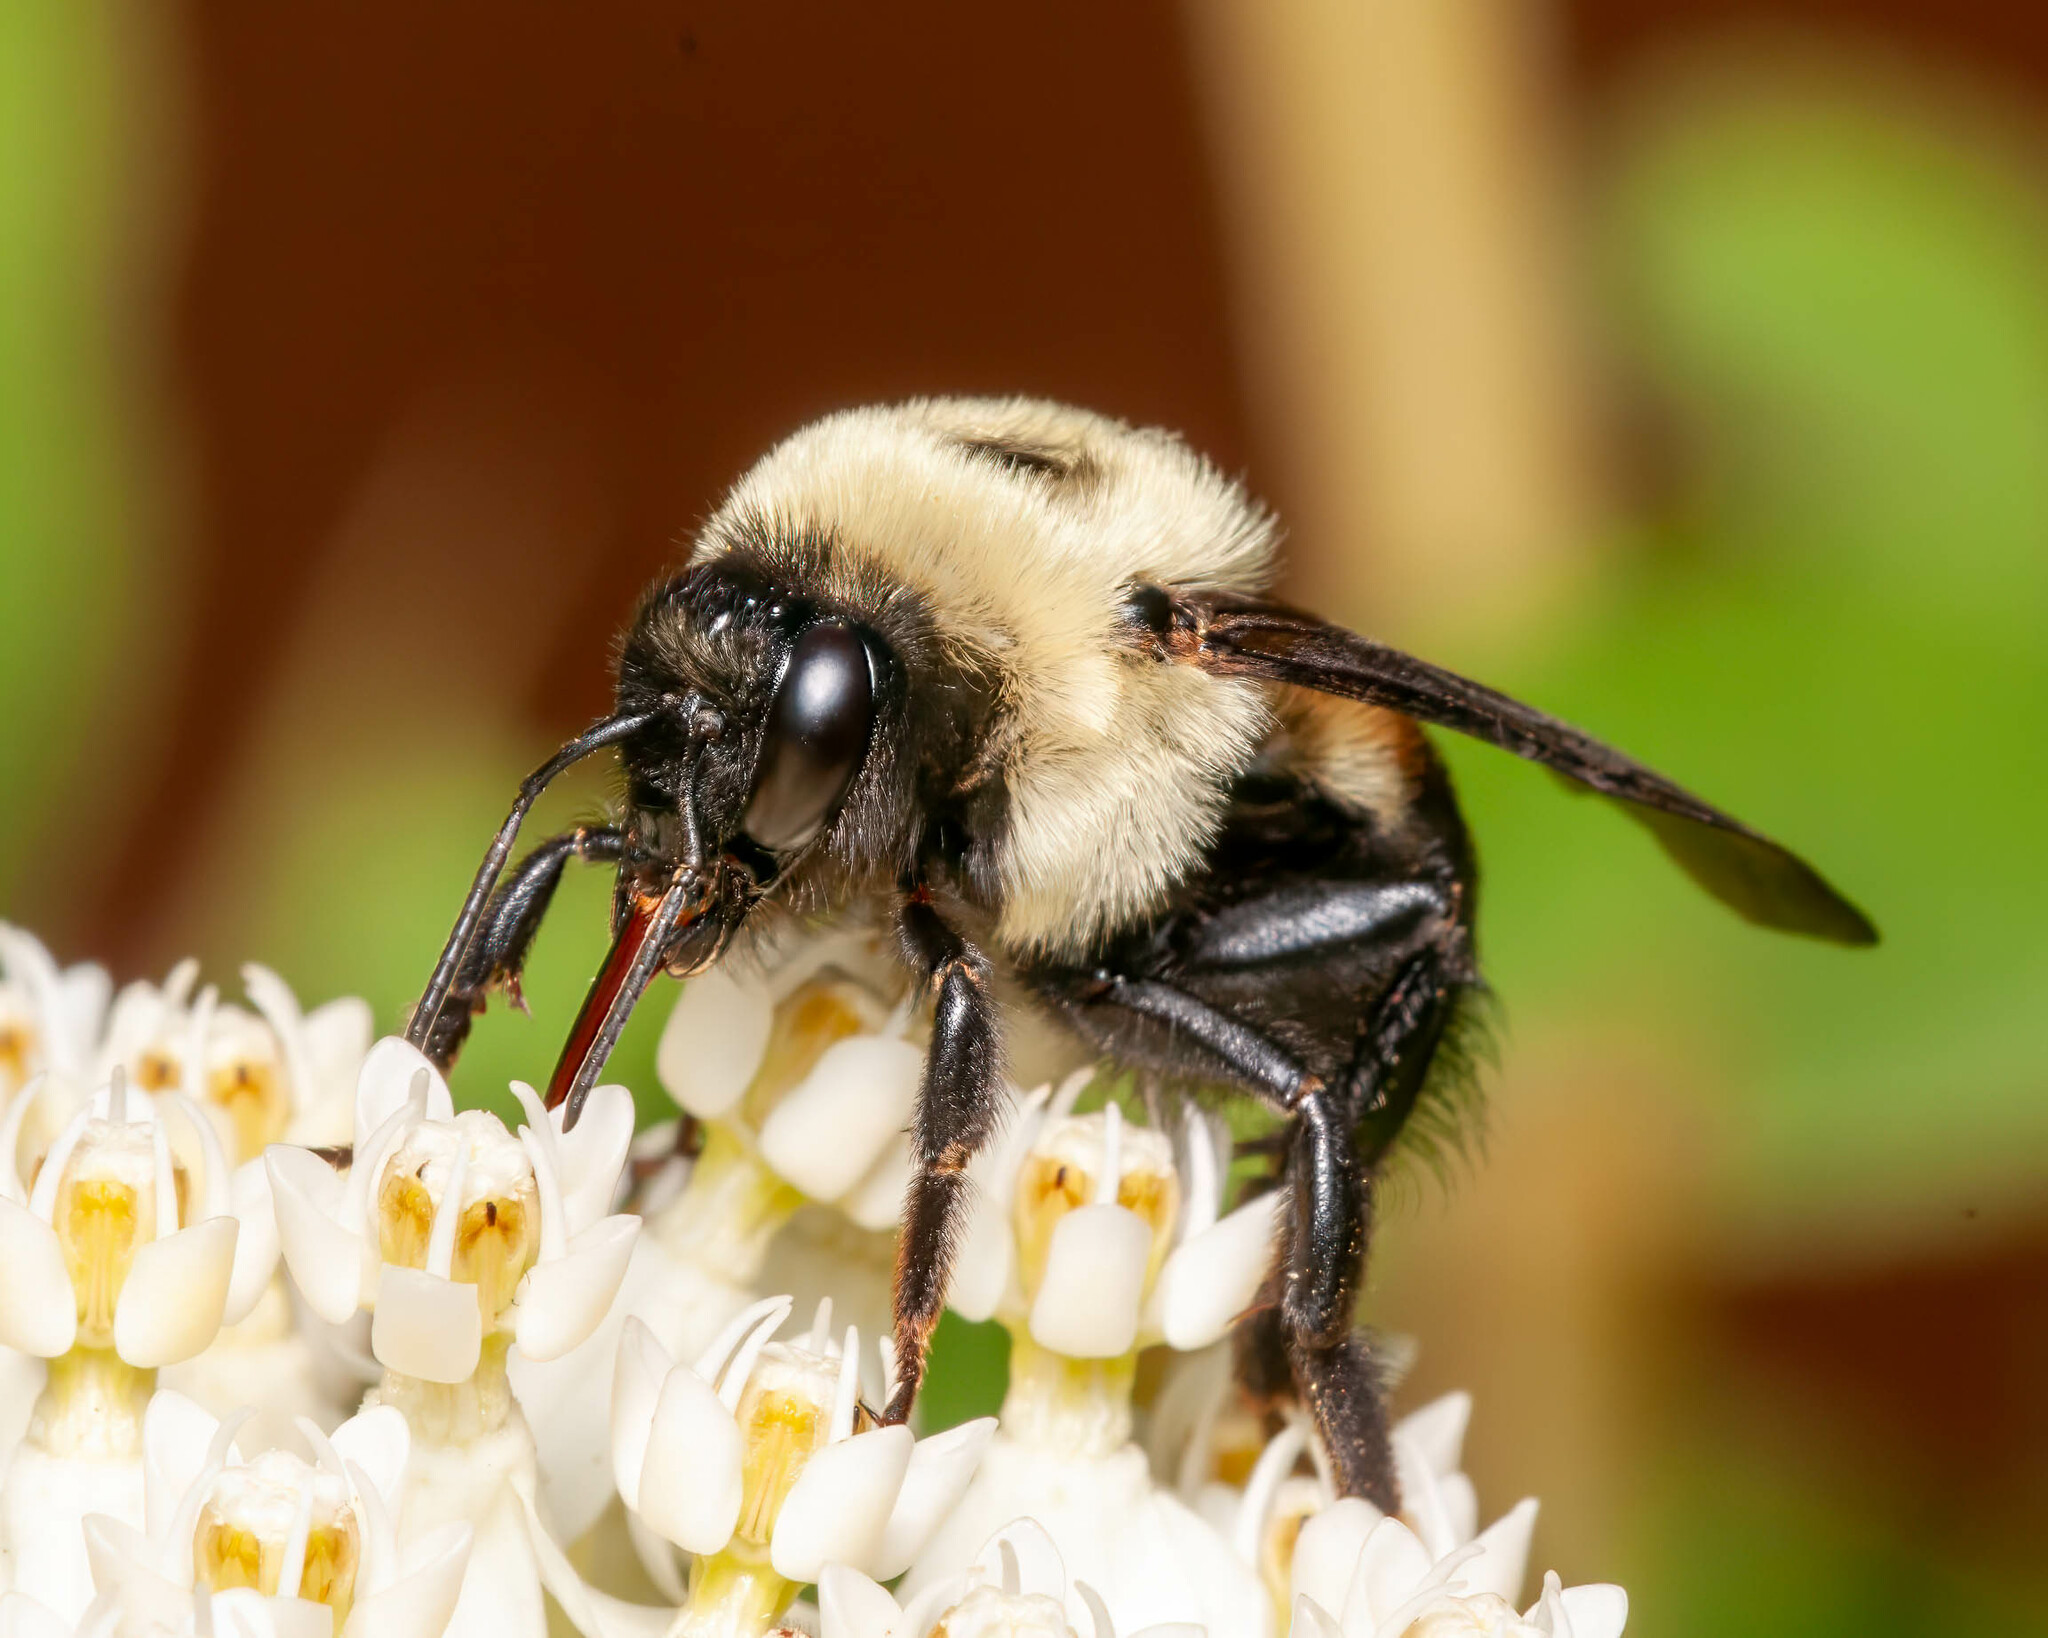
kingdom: Animalia
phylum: Arthropoda
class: Insecta
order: Hymenoptera
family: Apidae
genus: Bombus
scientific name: Bombus griseocollis
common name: Brown-belted bumble bee
